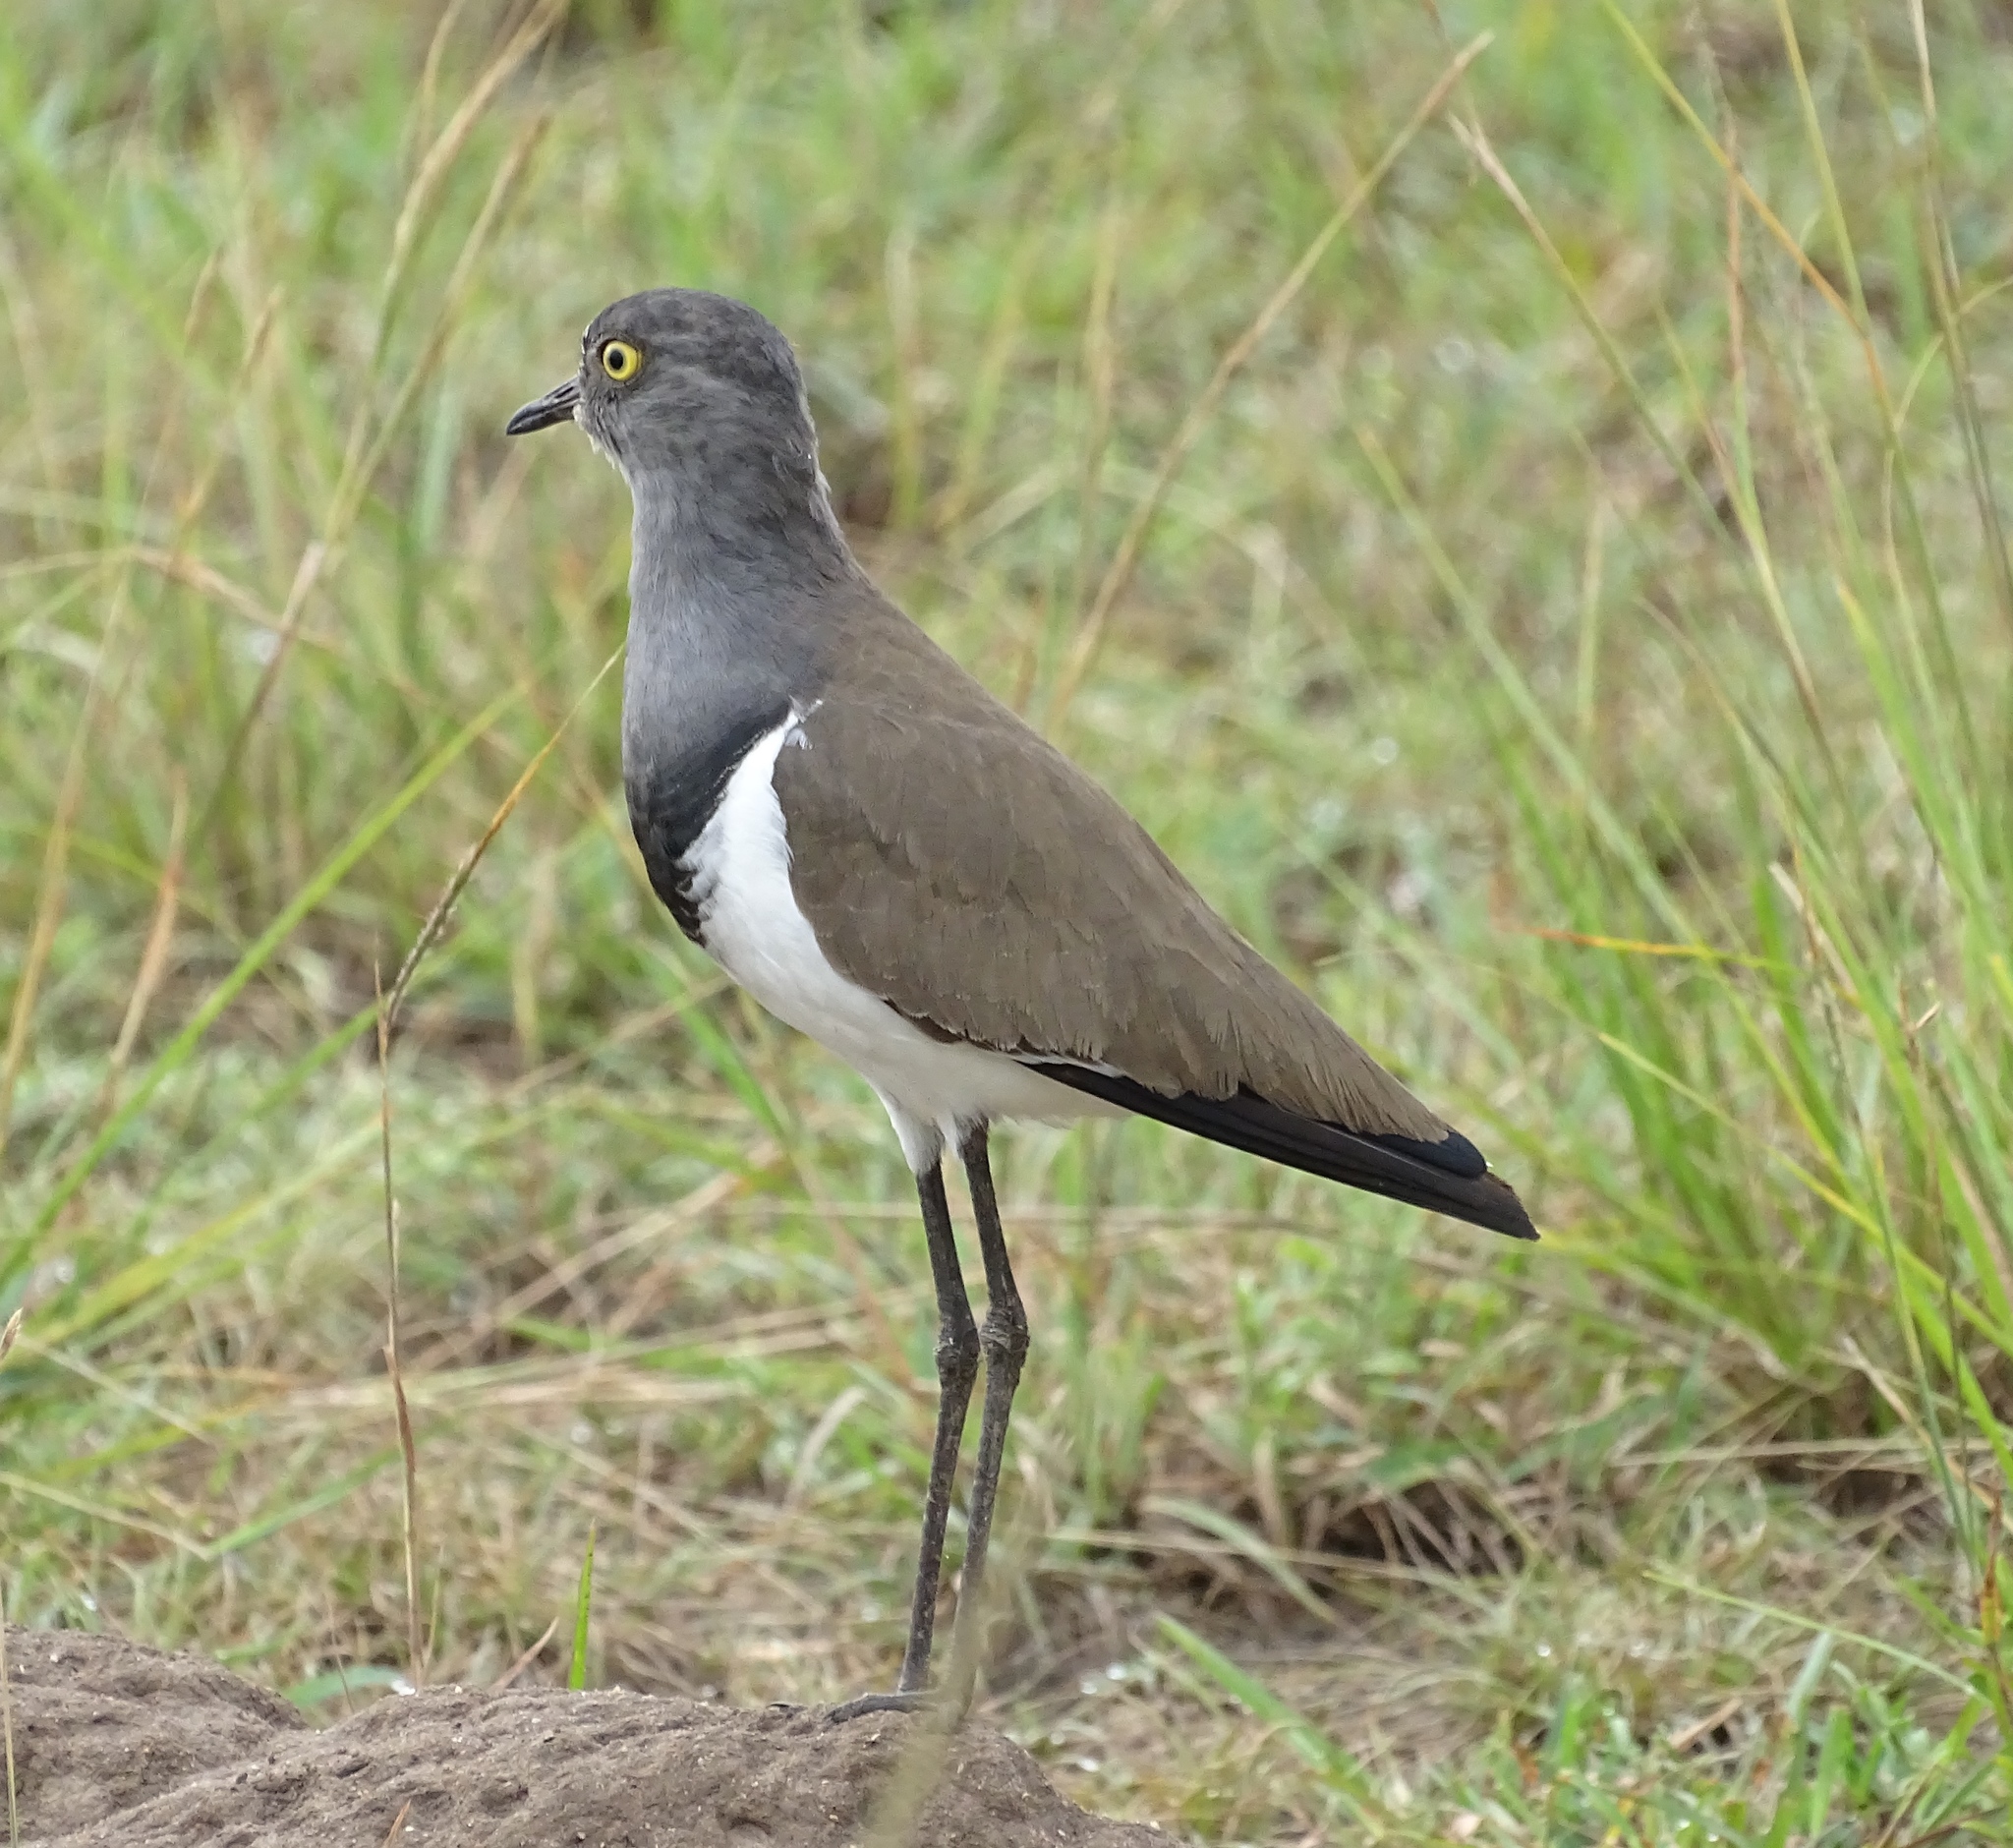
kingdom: Animalia
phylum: Chordata
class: Aves
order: Charadriiformes
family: Charadriidae
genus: Vanellus
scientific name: Vanellus lugubris
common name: Senegal lapwing
